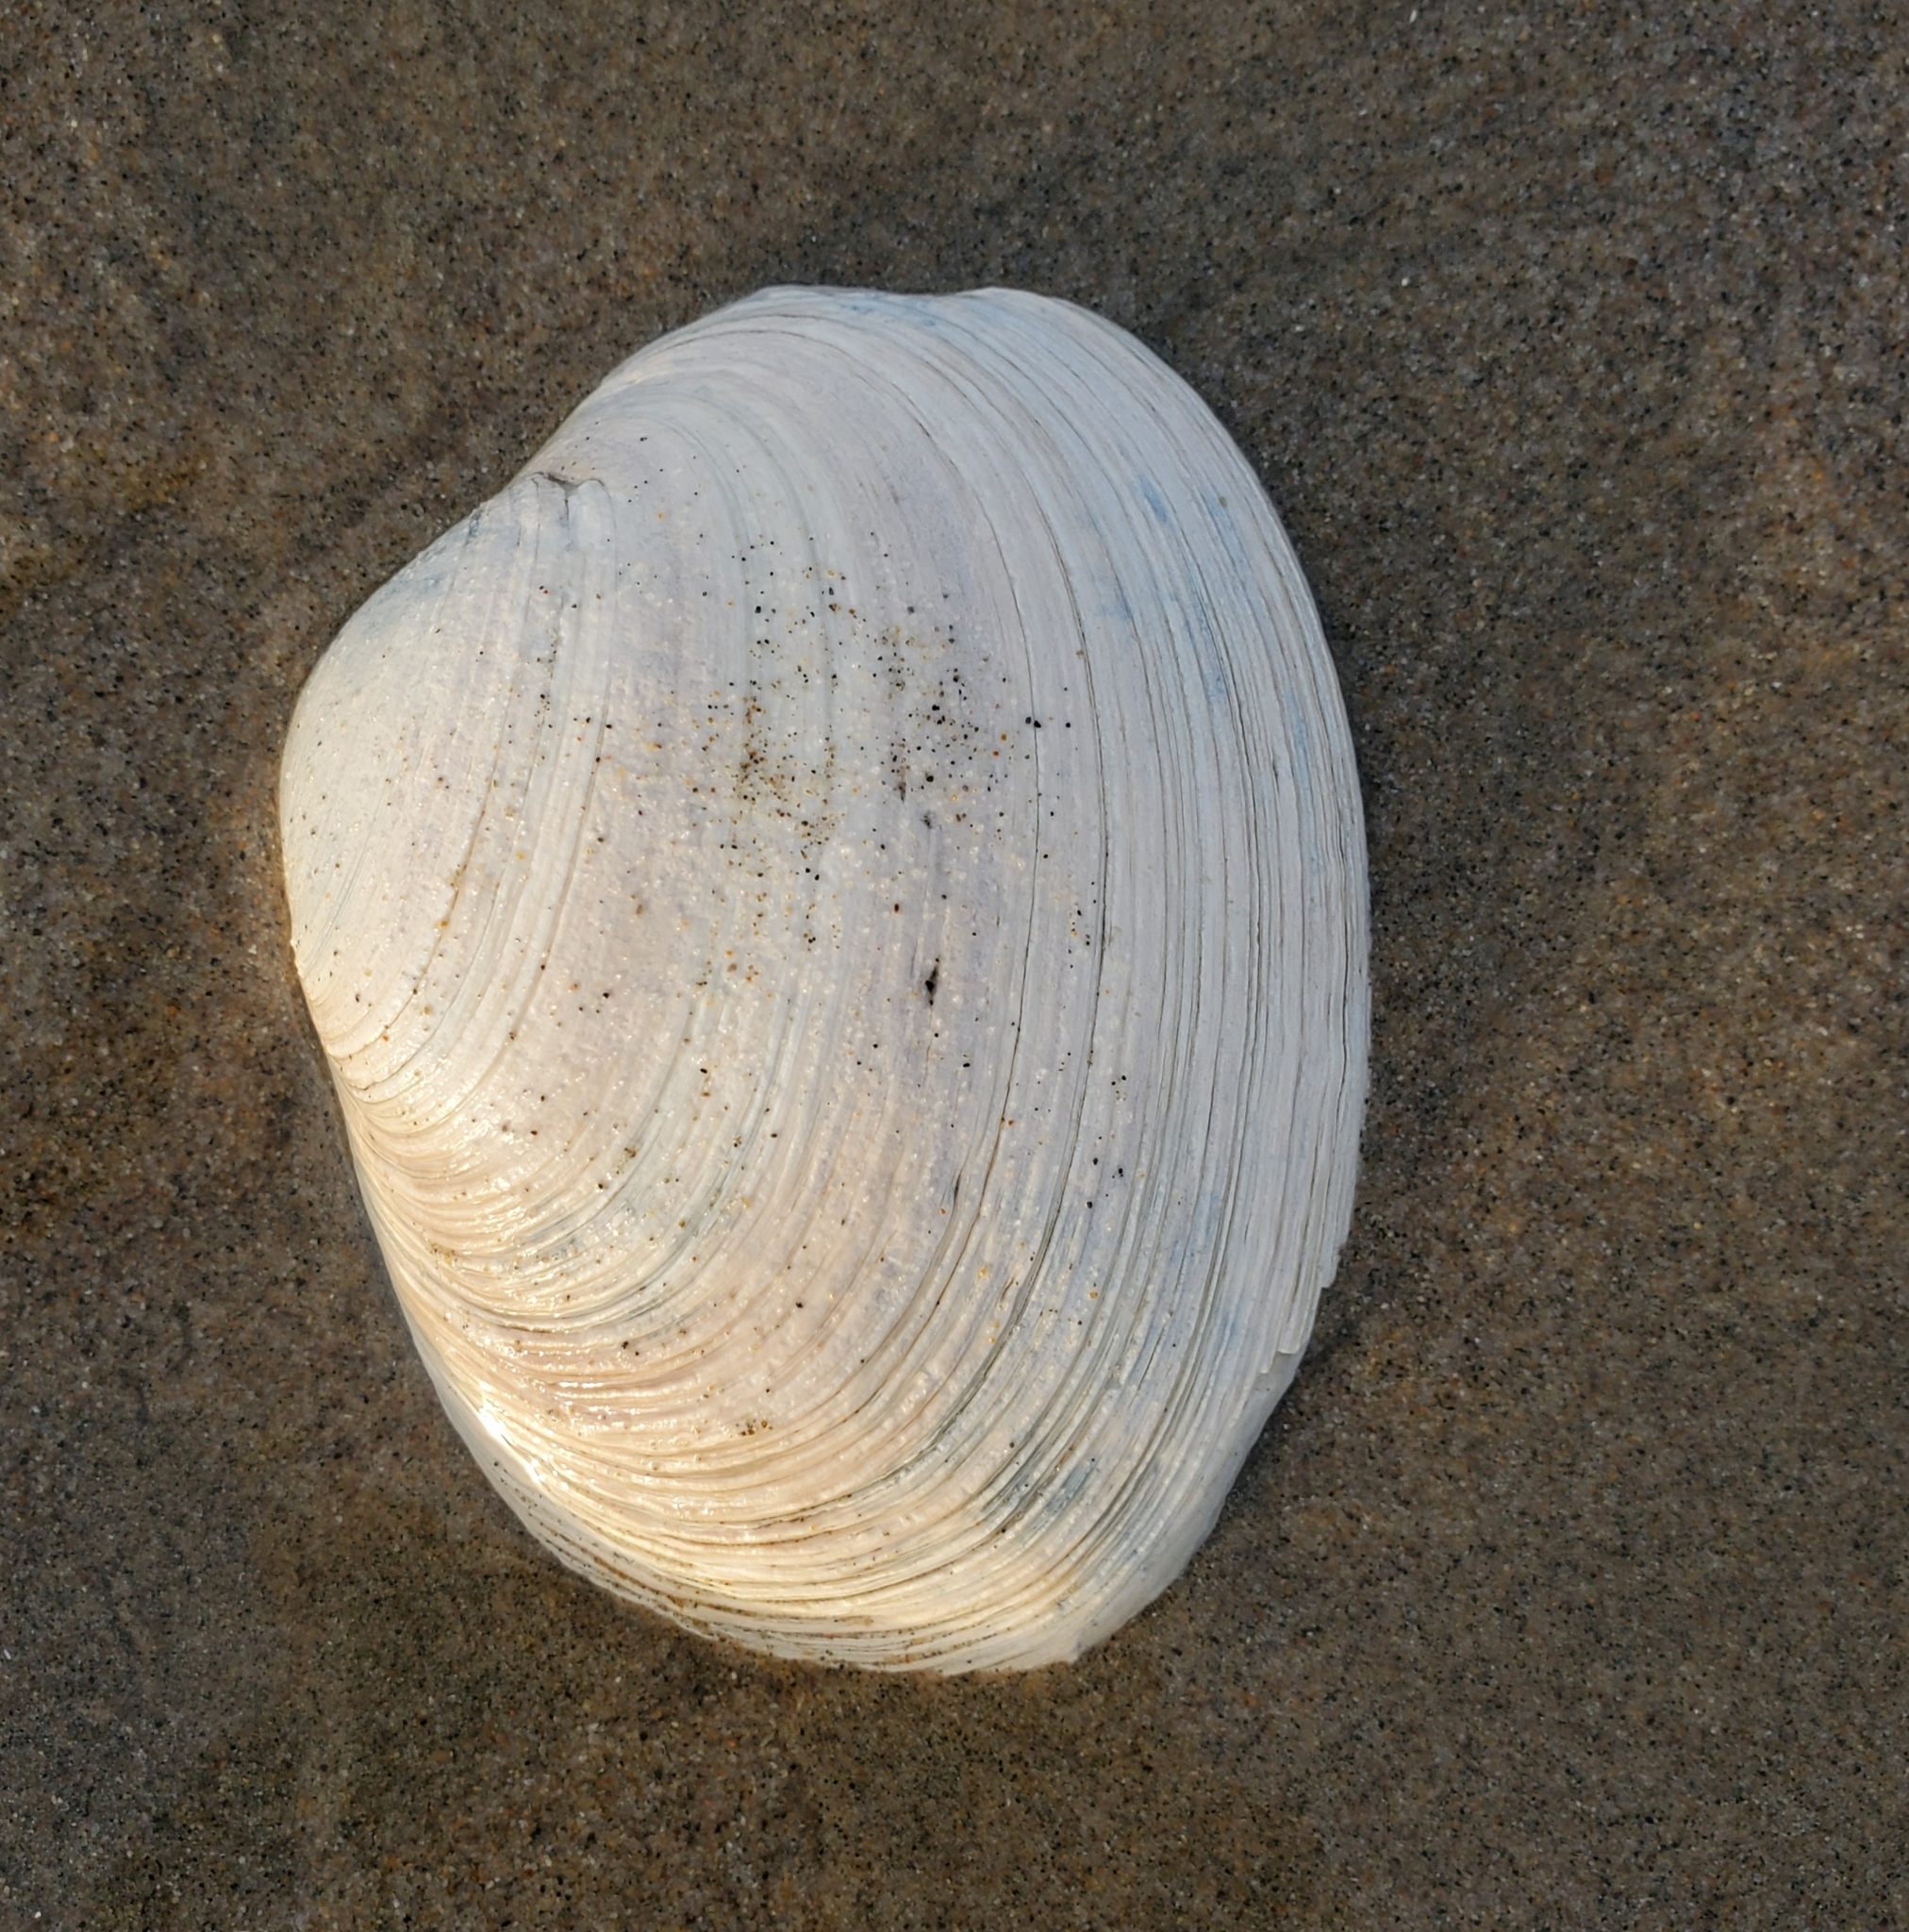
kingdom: Animalia
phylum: Mollusca
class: Bivalvia
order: Venerida
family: Veneridae
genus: Saxidomus
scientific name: Saxidomus nuttalli
